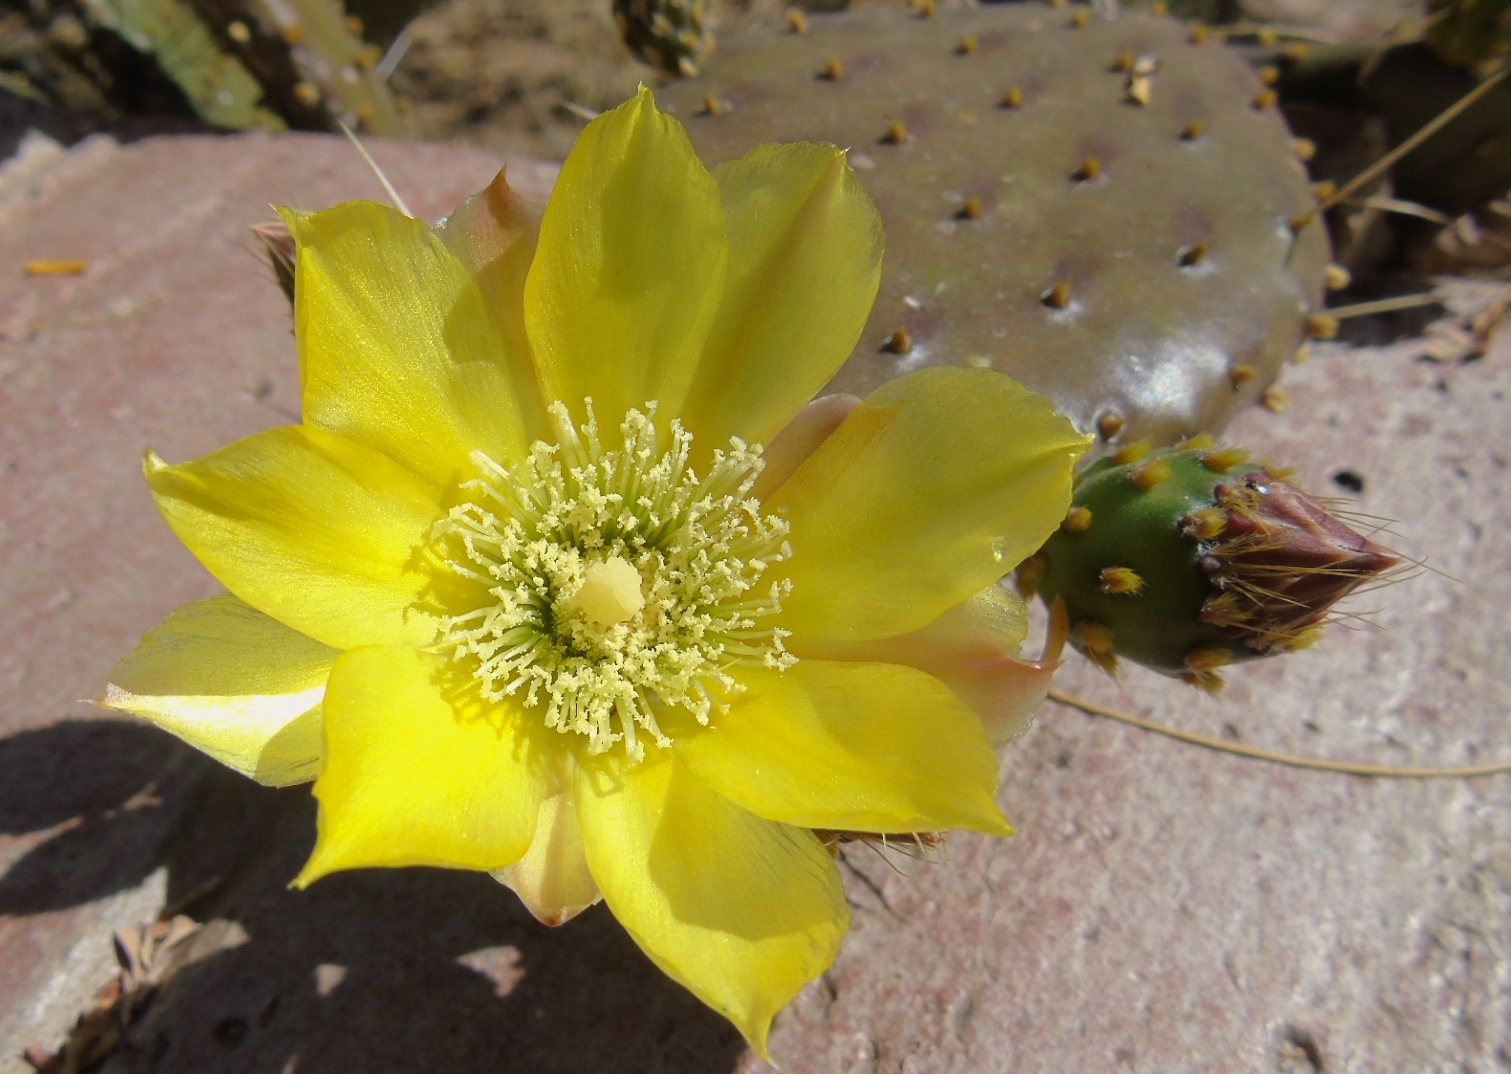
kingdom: Plantae
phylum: Tracheophyta
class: Magnoliopsida
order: Caryophyllales
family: Cactaceae
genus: Opuntia
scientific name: Opuntia decumbens
